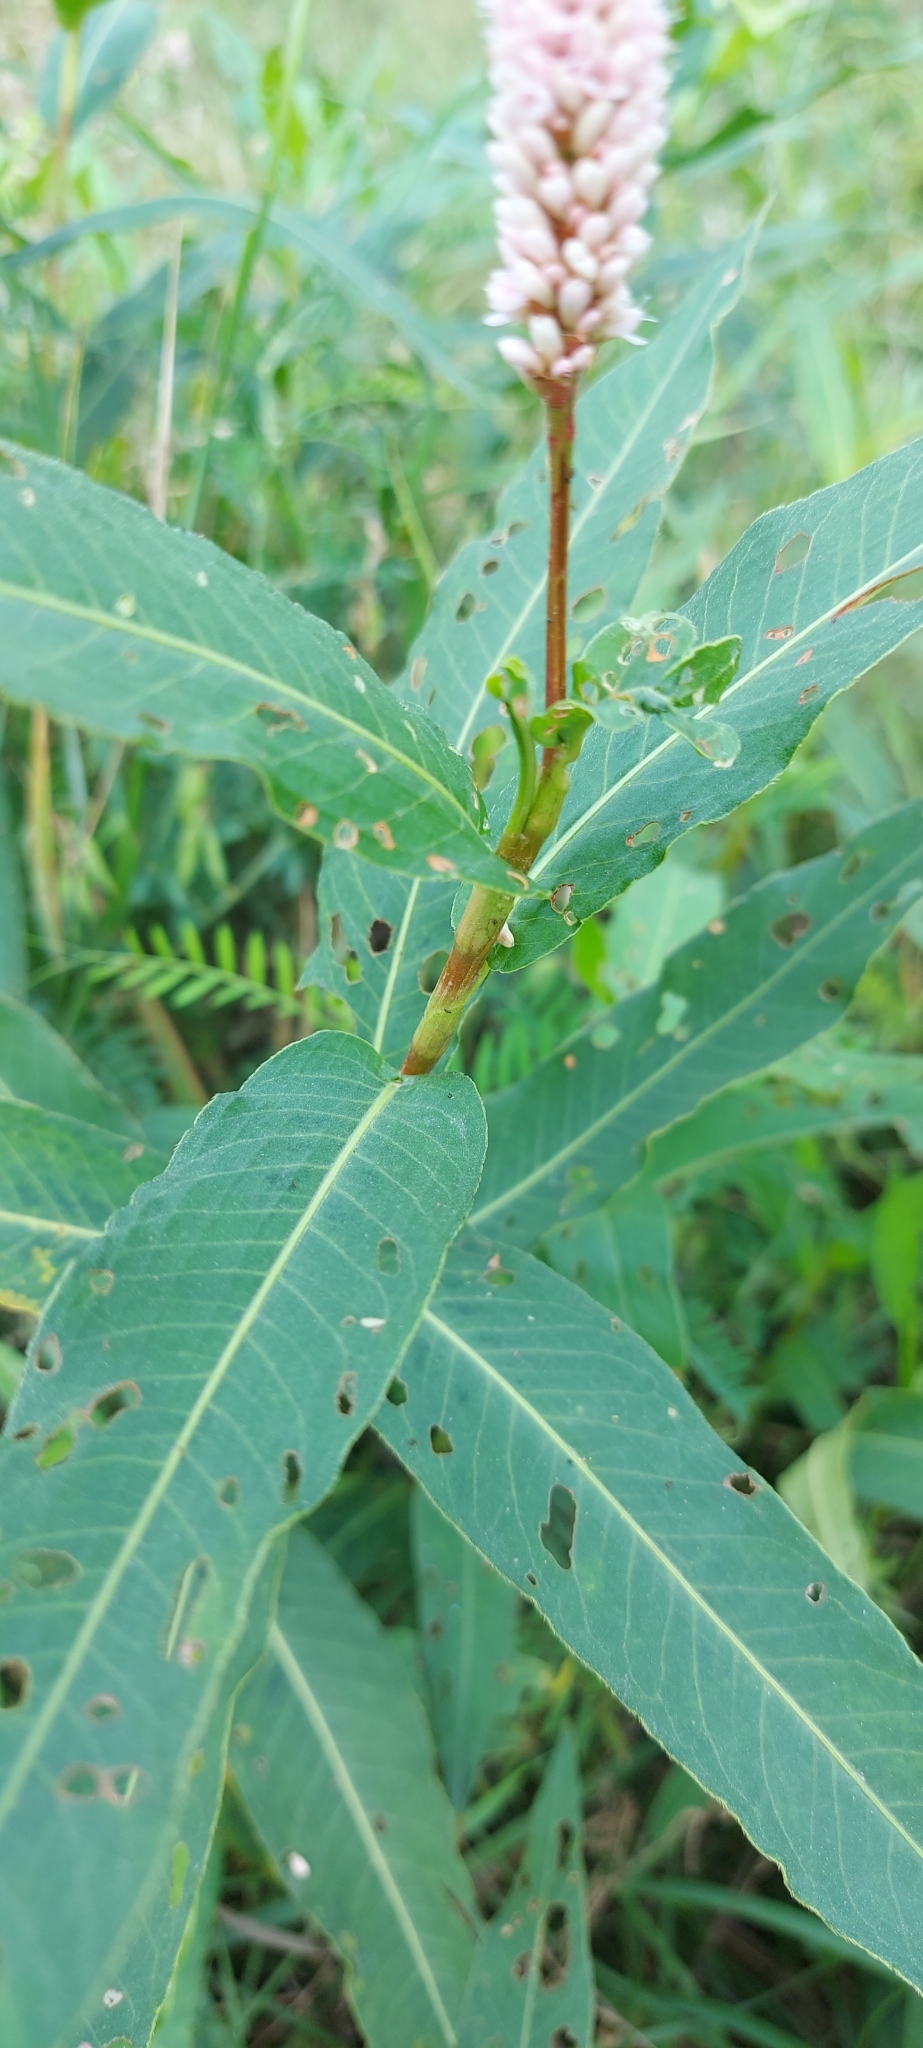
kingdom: Plantae
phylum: Tracheophyta
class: Magnoliopsida
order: Caryophyllales
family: Polygonaceae
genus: Persicaria
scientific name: Persicaria amphibia
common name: Amphibious bistort
